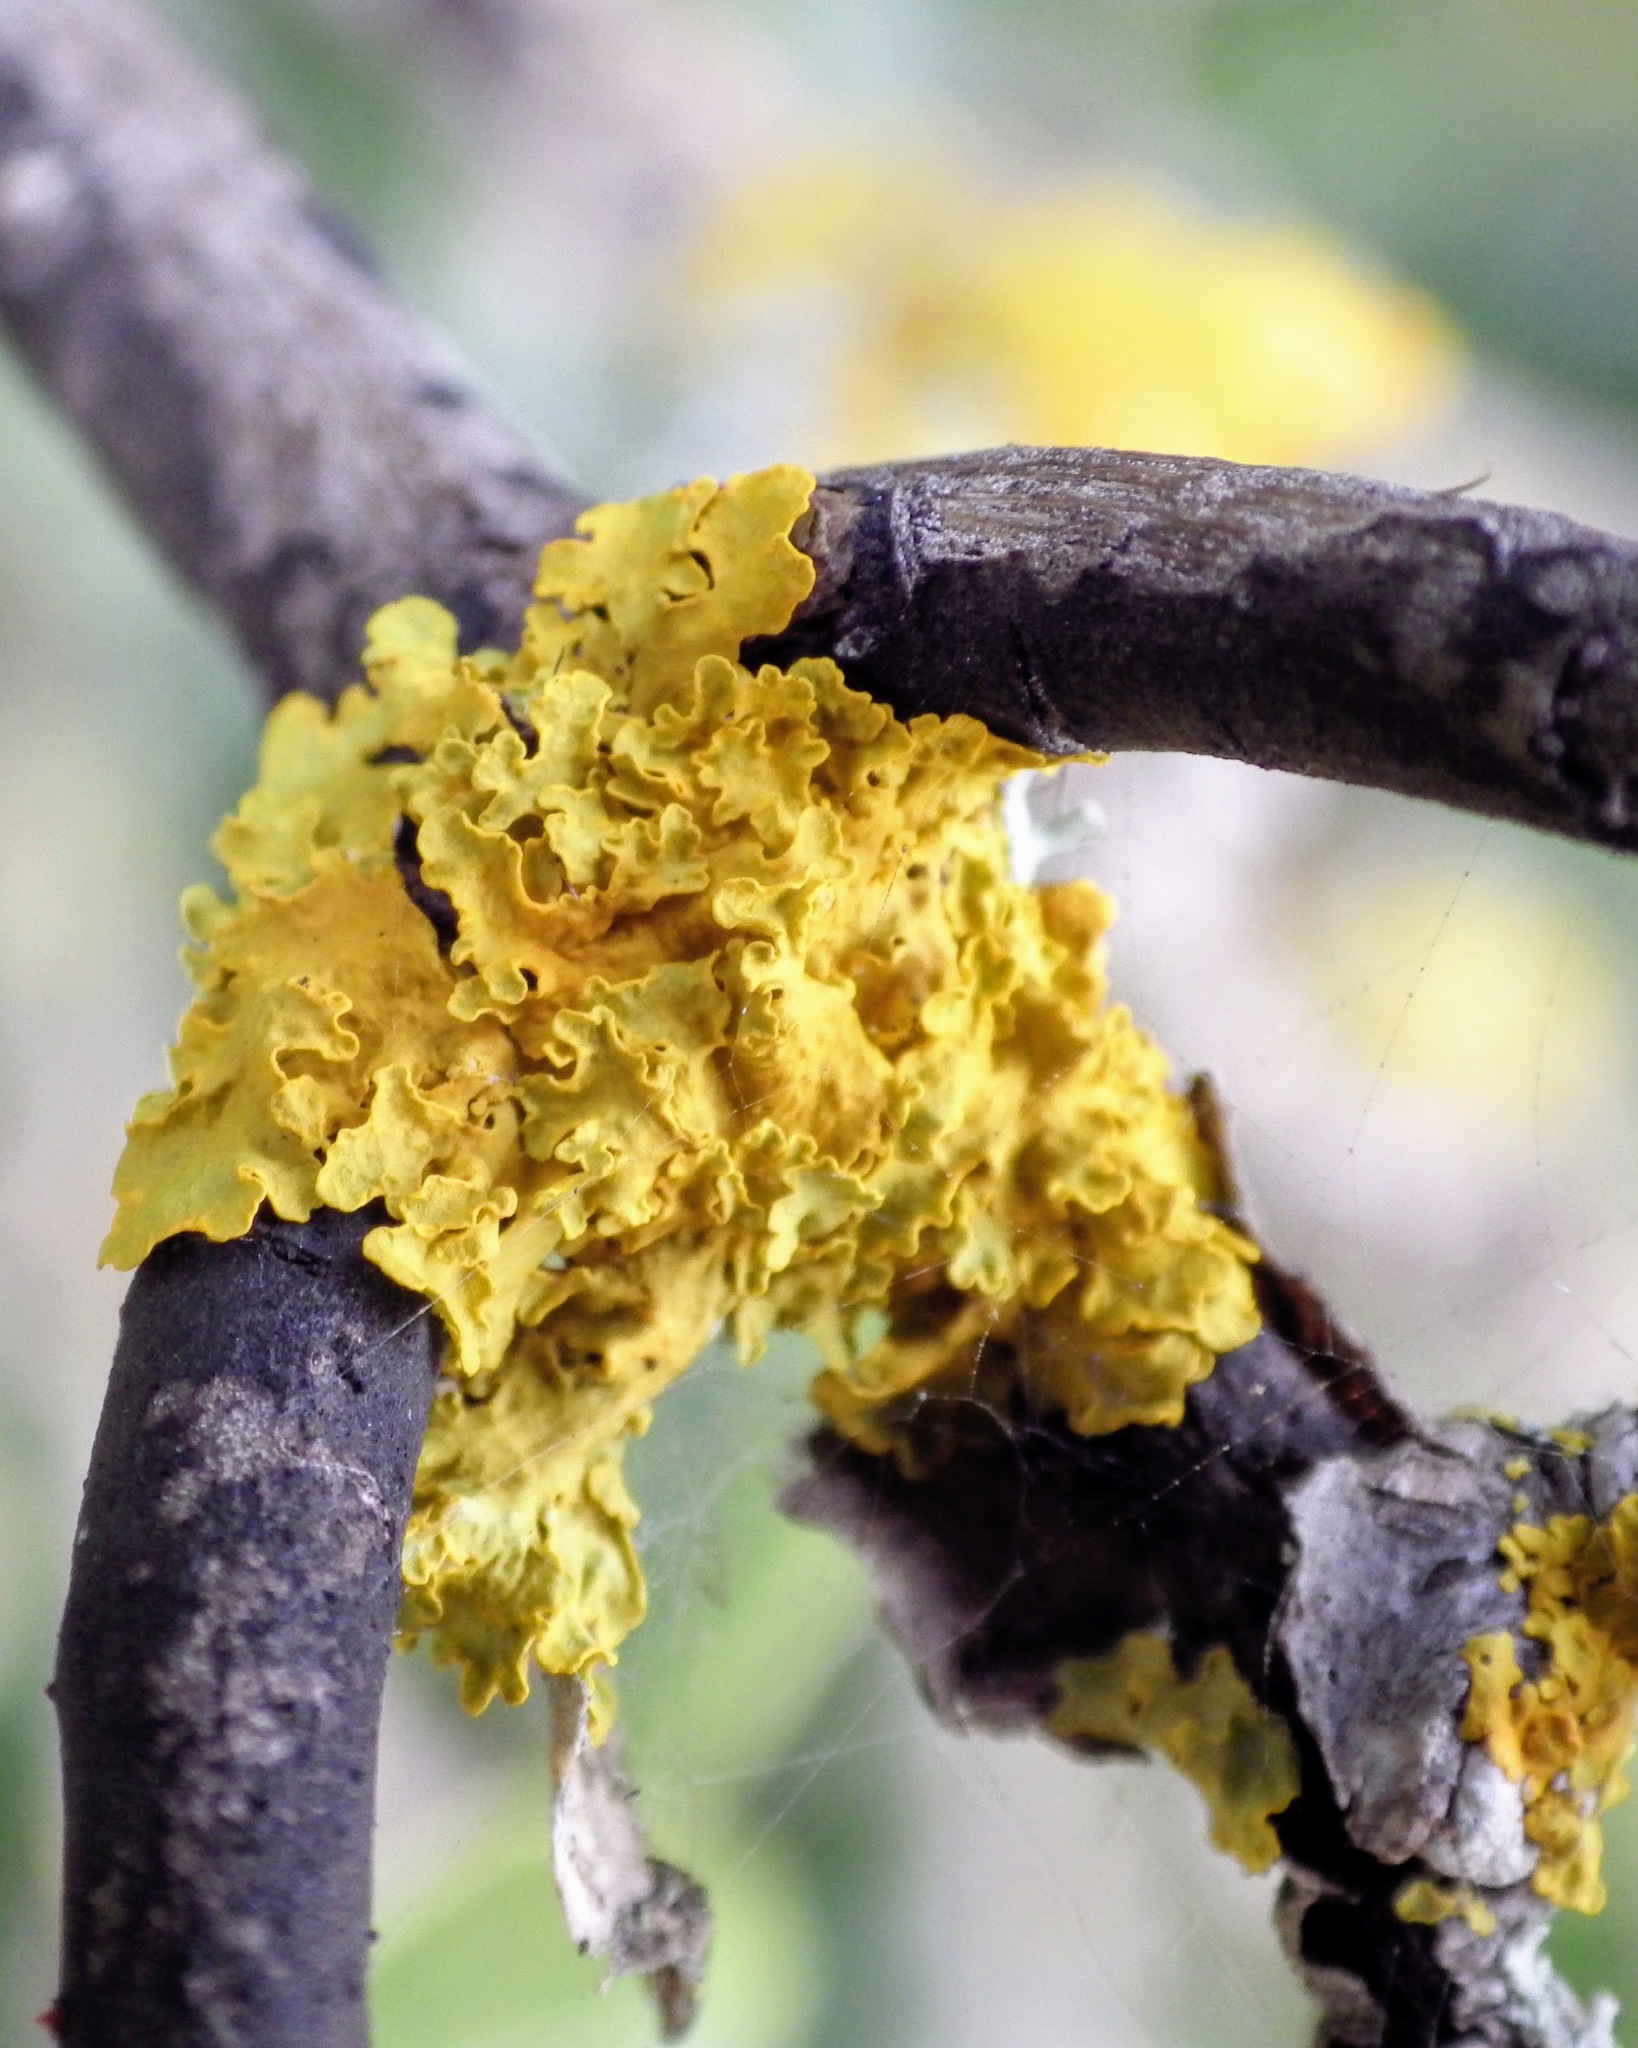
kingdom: Fungi
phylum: Ascomycota
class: Lecanoromycetes
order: Teloschistales
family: Teloschistaceae
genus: Xanthoria
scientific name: Xanthoria parietina
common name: Common orange lichen
